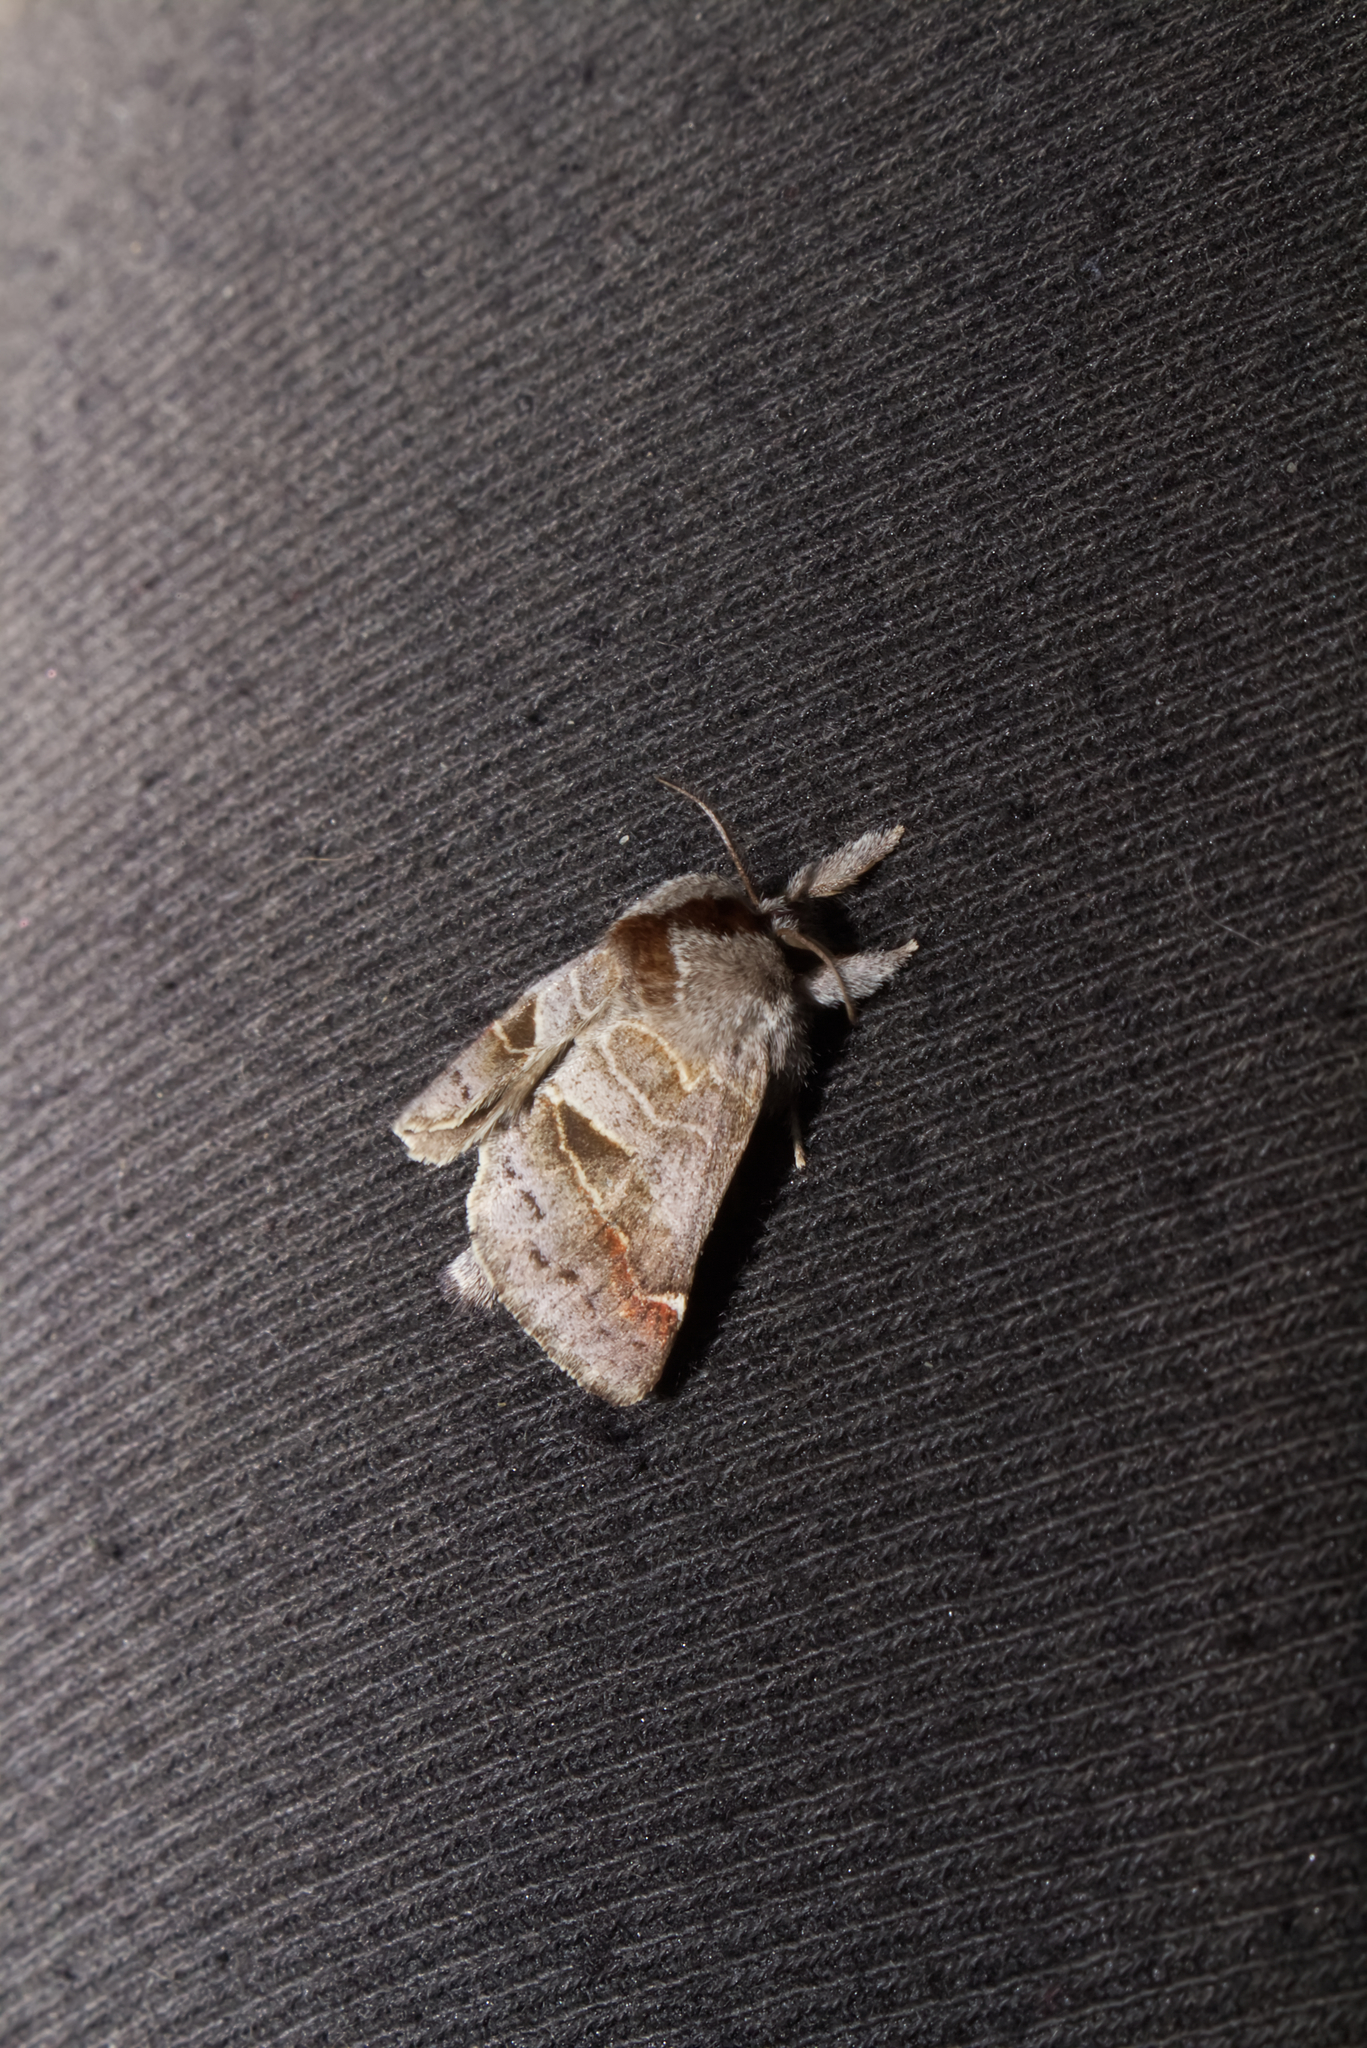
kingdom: Animalia
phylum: Arthropoda
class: Insecta
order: Lepidoptera
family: Notodontidae
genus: Clostera
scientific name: Clostera pigra
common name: Small chocolate-tip
